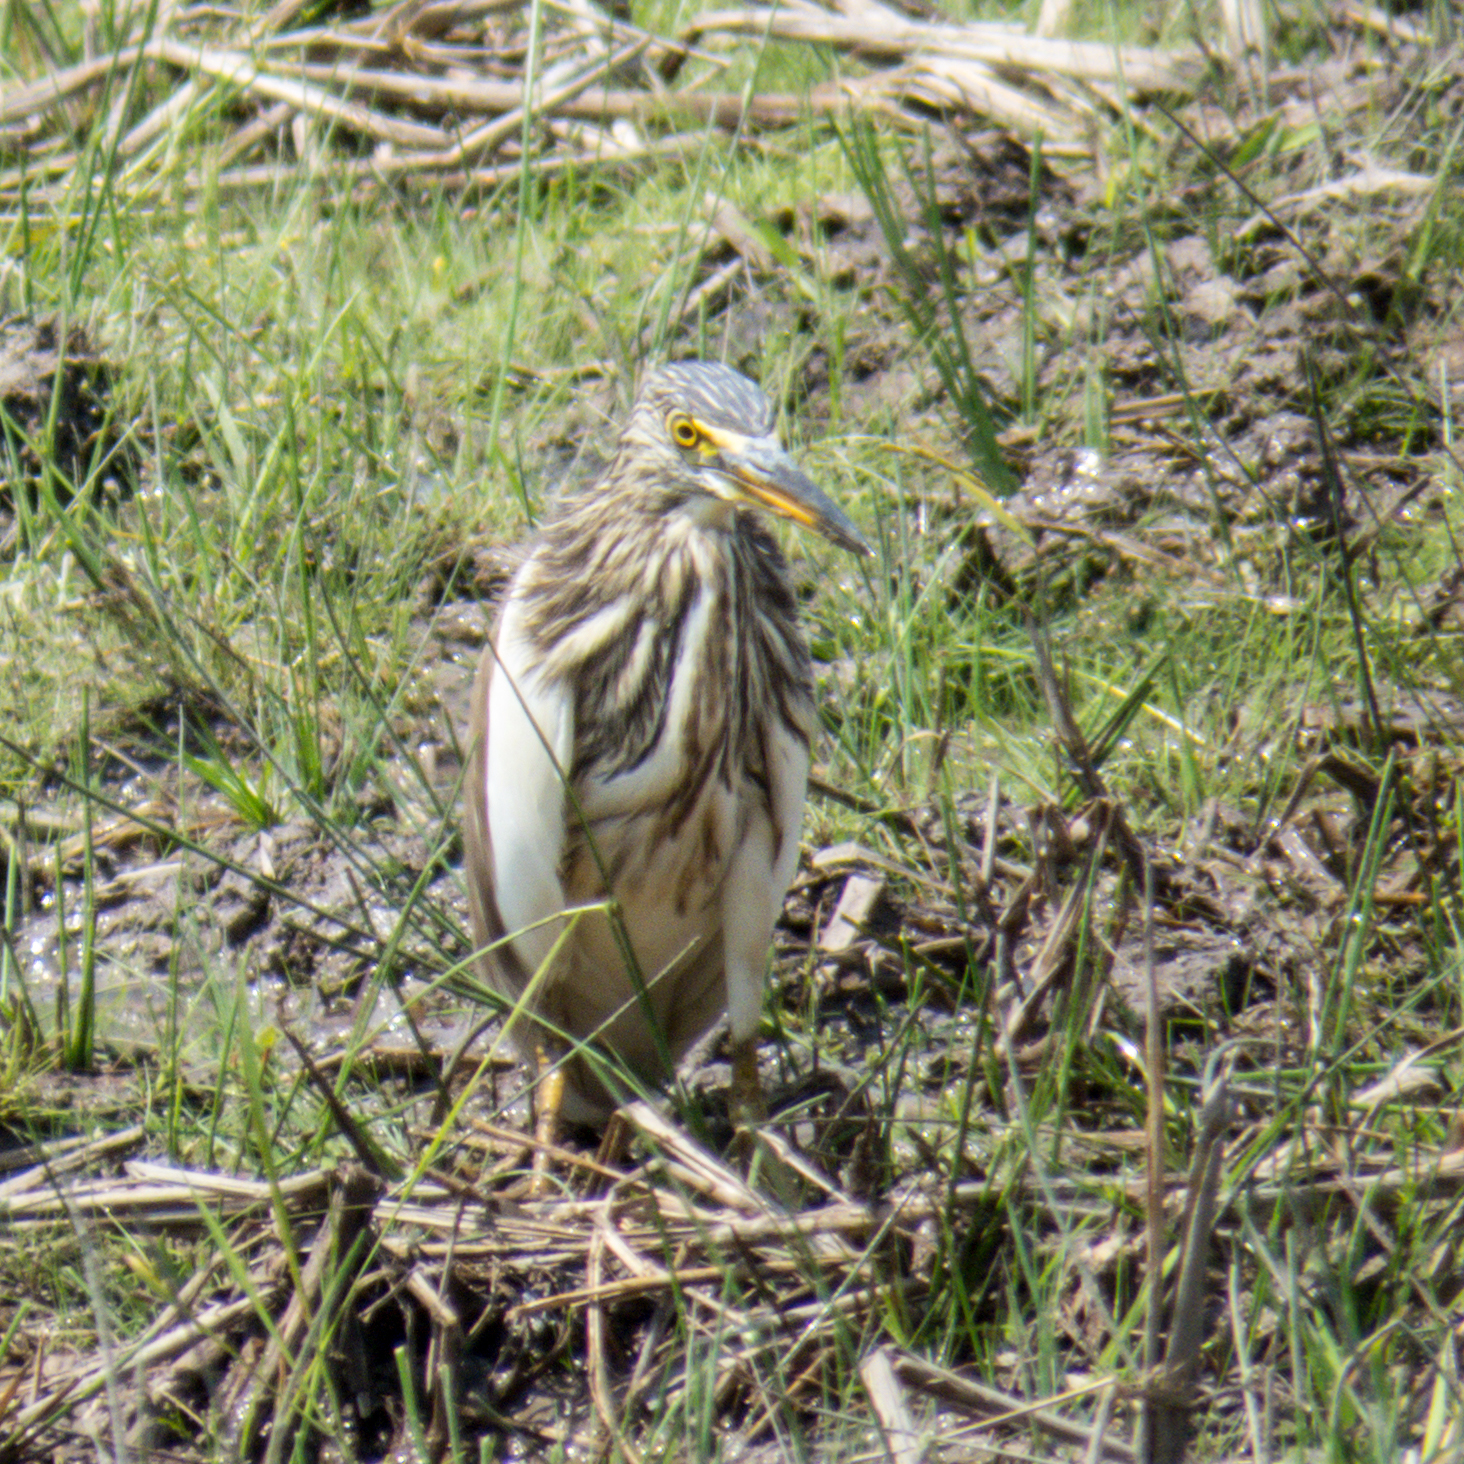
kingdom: Animalia
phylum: Chordata
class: Aves
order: Pelecaniformes
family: Ardeidae
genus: Ardeola
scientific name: Ardeola
